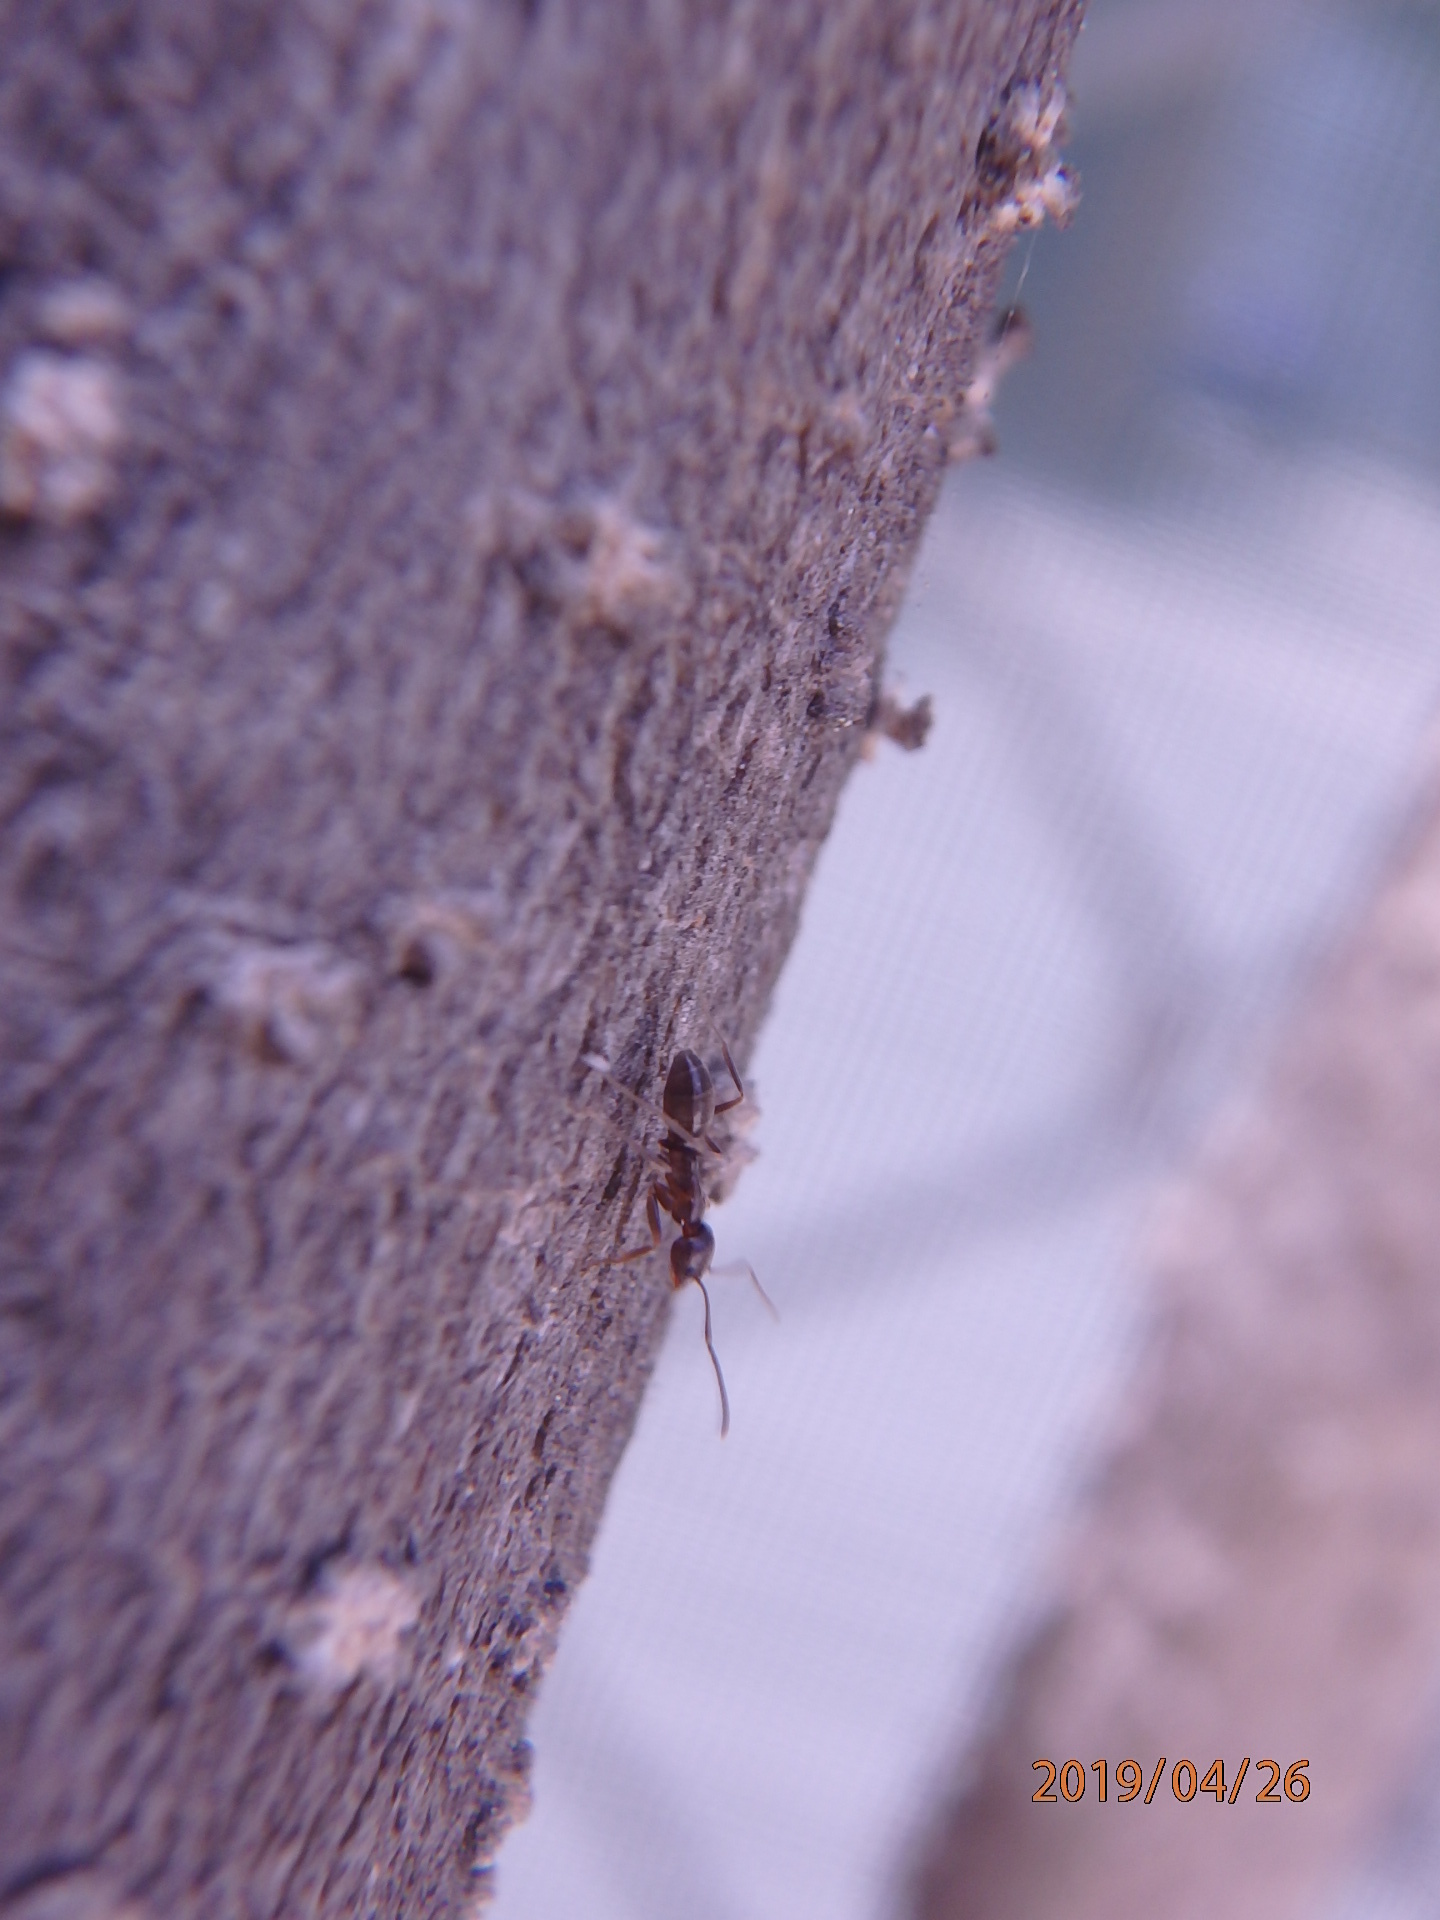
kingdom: Animalia
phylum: Arthropoda
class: Insecta
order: Hymenoptera
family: Formicidae
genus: Linepithema
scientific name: Linepithema humile
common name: Argentine ant
